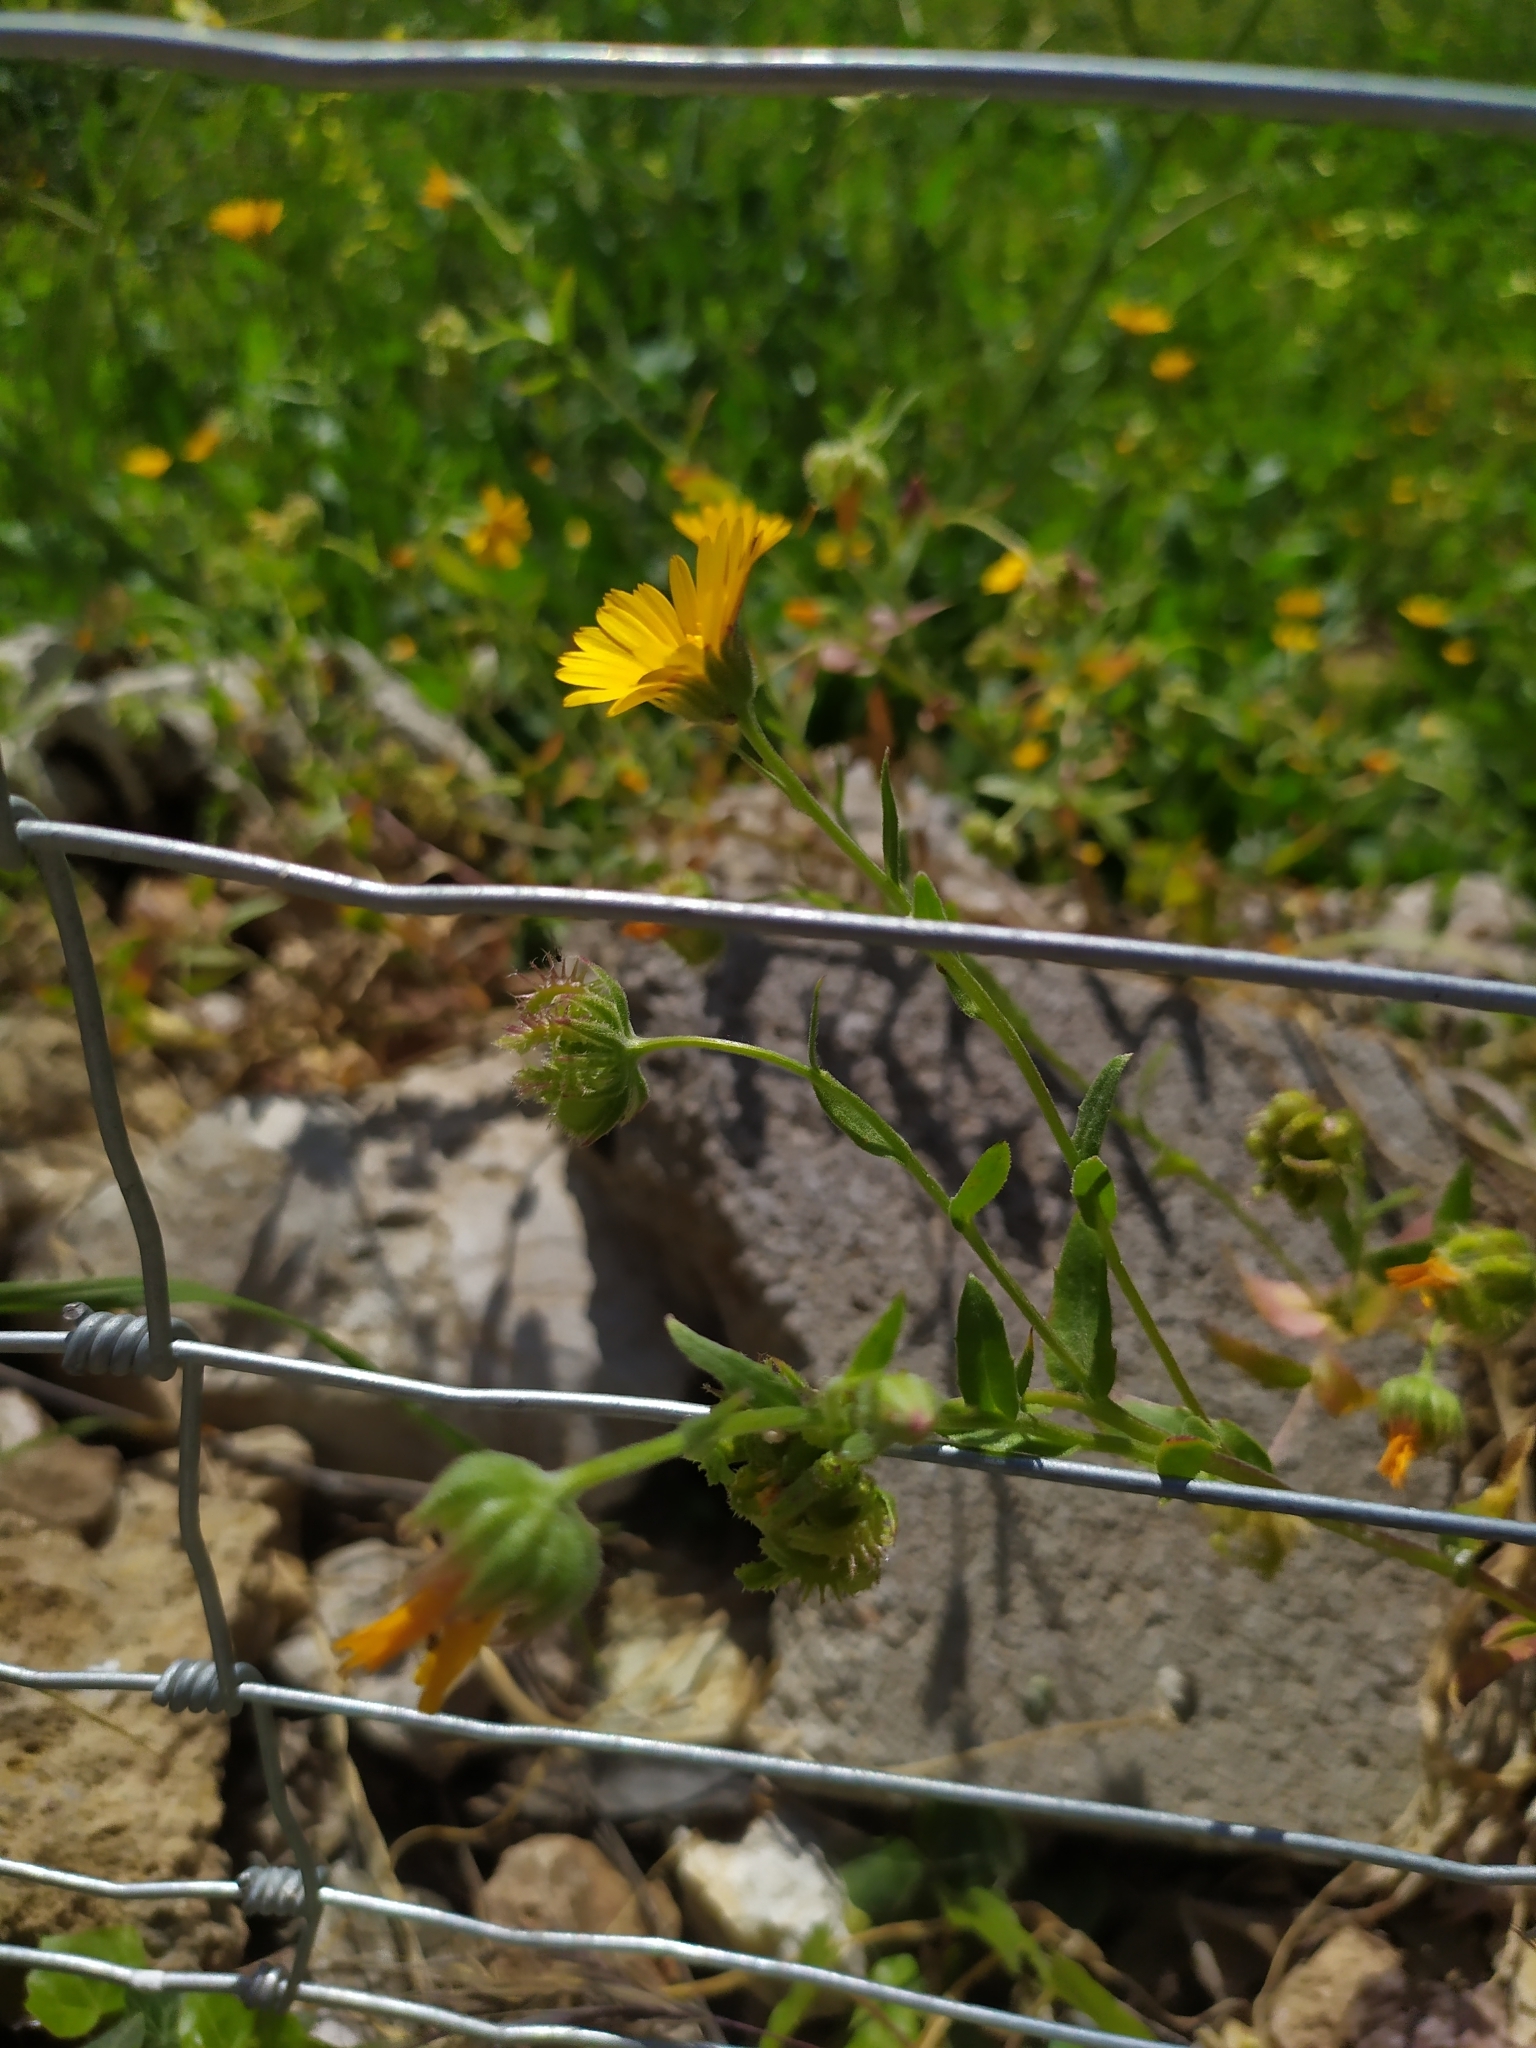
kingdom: Plantae
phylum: Tracheophyta
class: Magnoliopsida
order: Asterales
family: Asteraceae
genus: Calendula
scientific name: Calendula arvensis
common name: Field marigold
